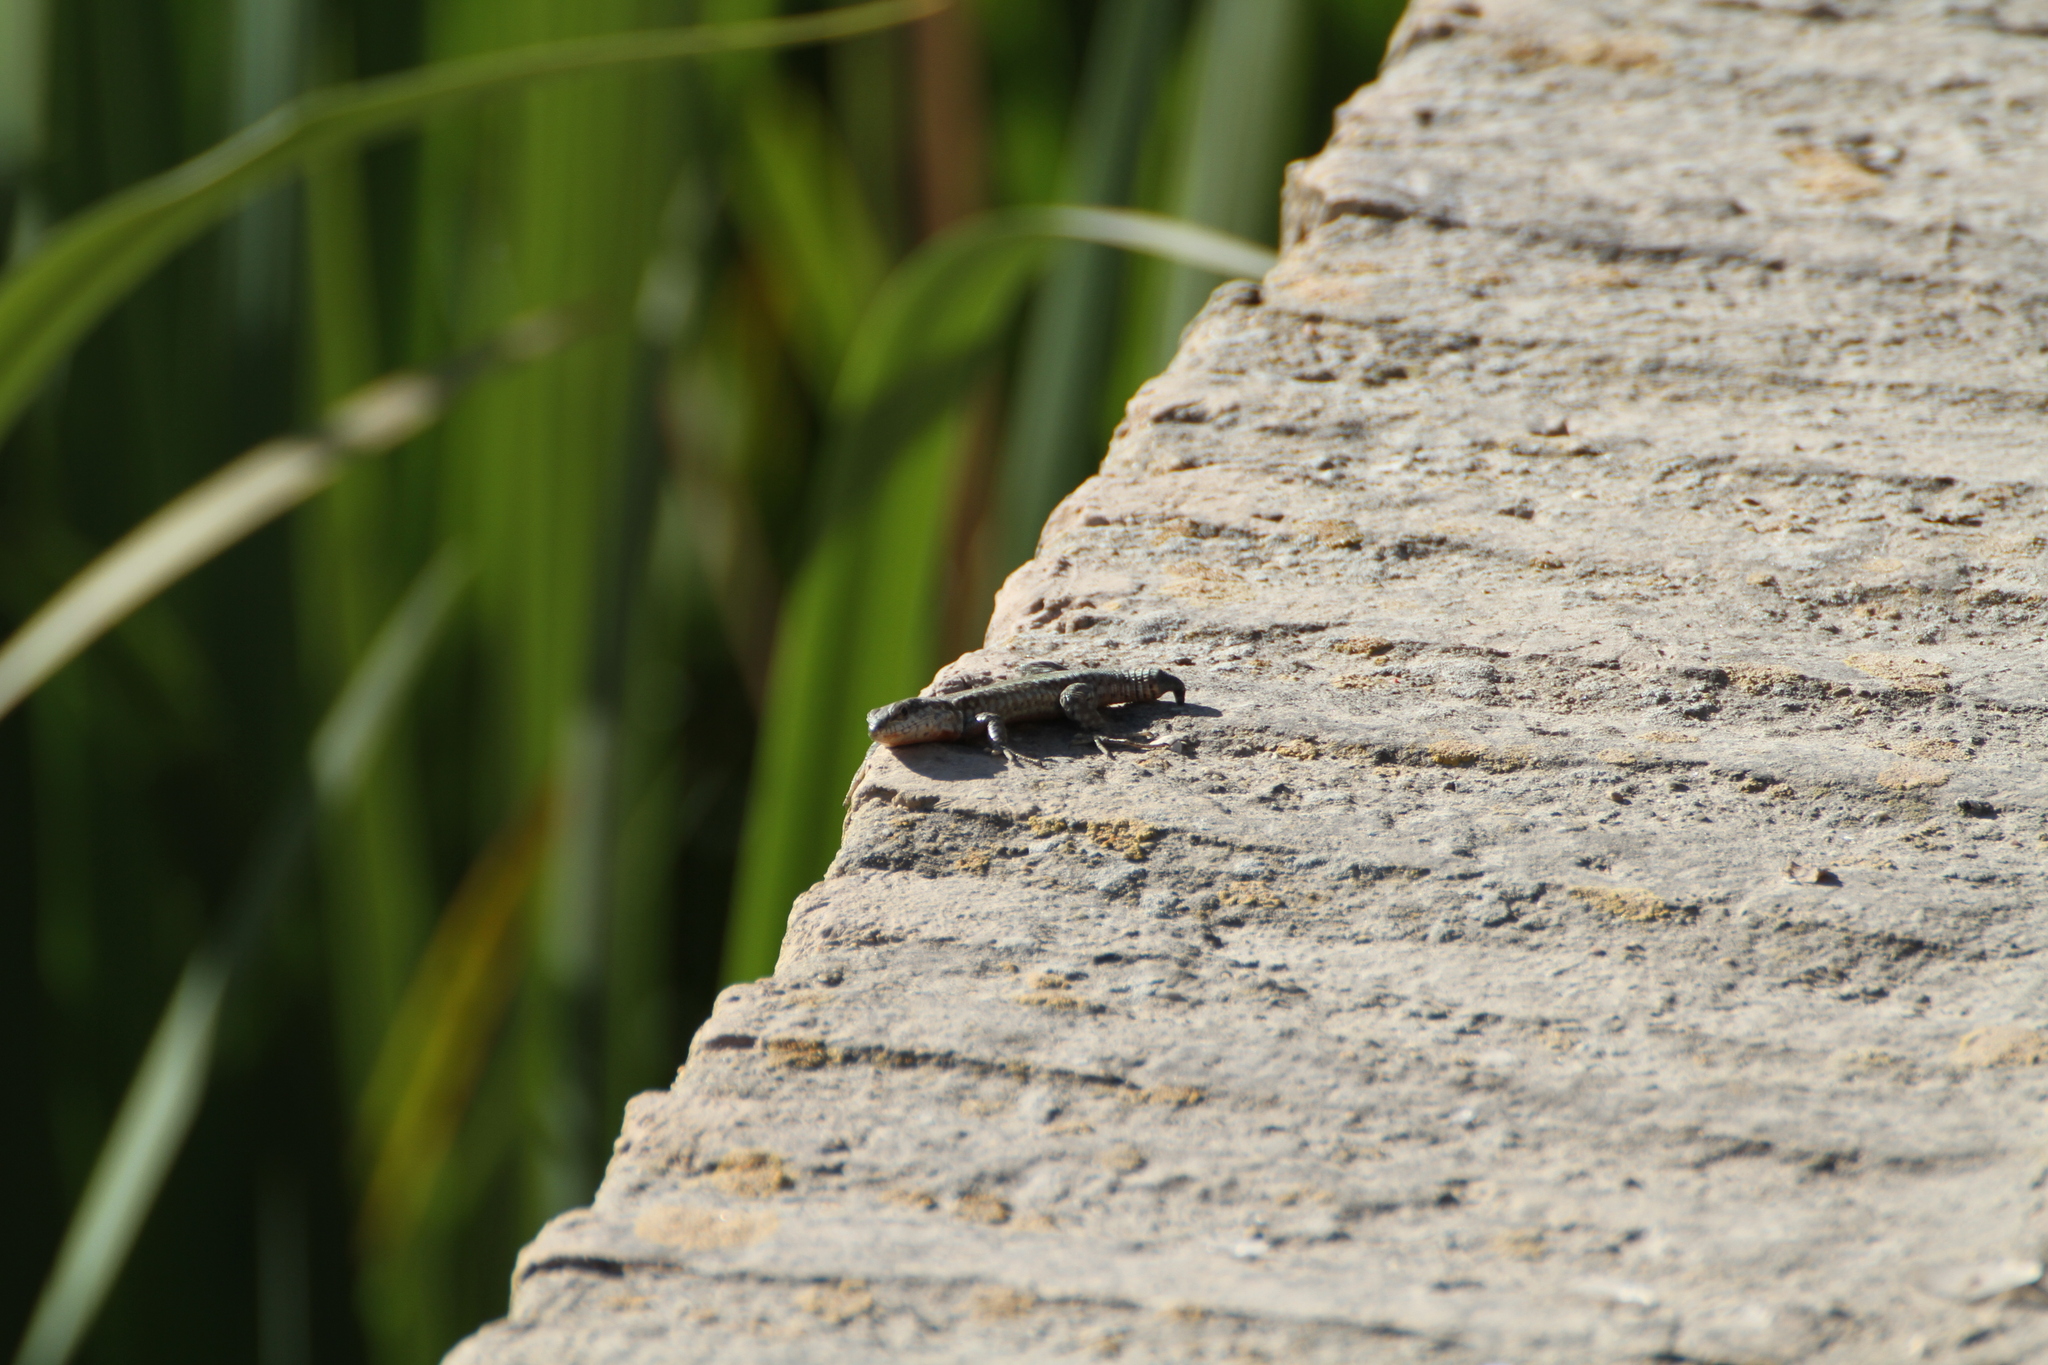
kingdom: Animalia
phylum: Chordata
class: Squamata
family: Lacertidae
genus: Podarcis
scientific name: Podarcis vaucheri
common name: Vaucher's wall lizard
